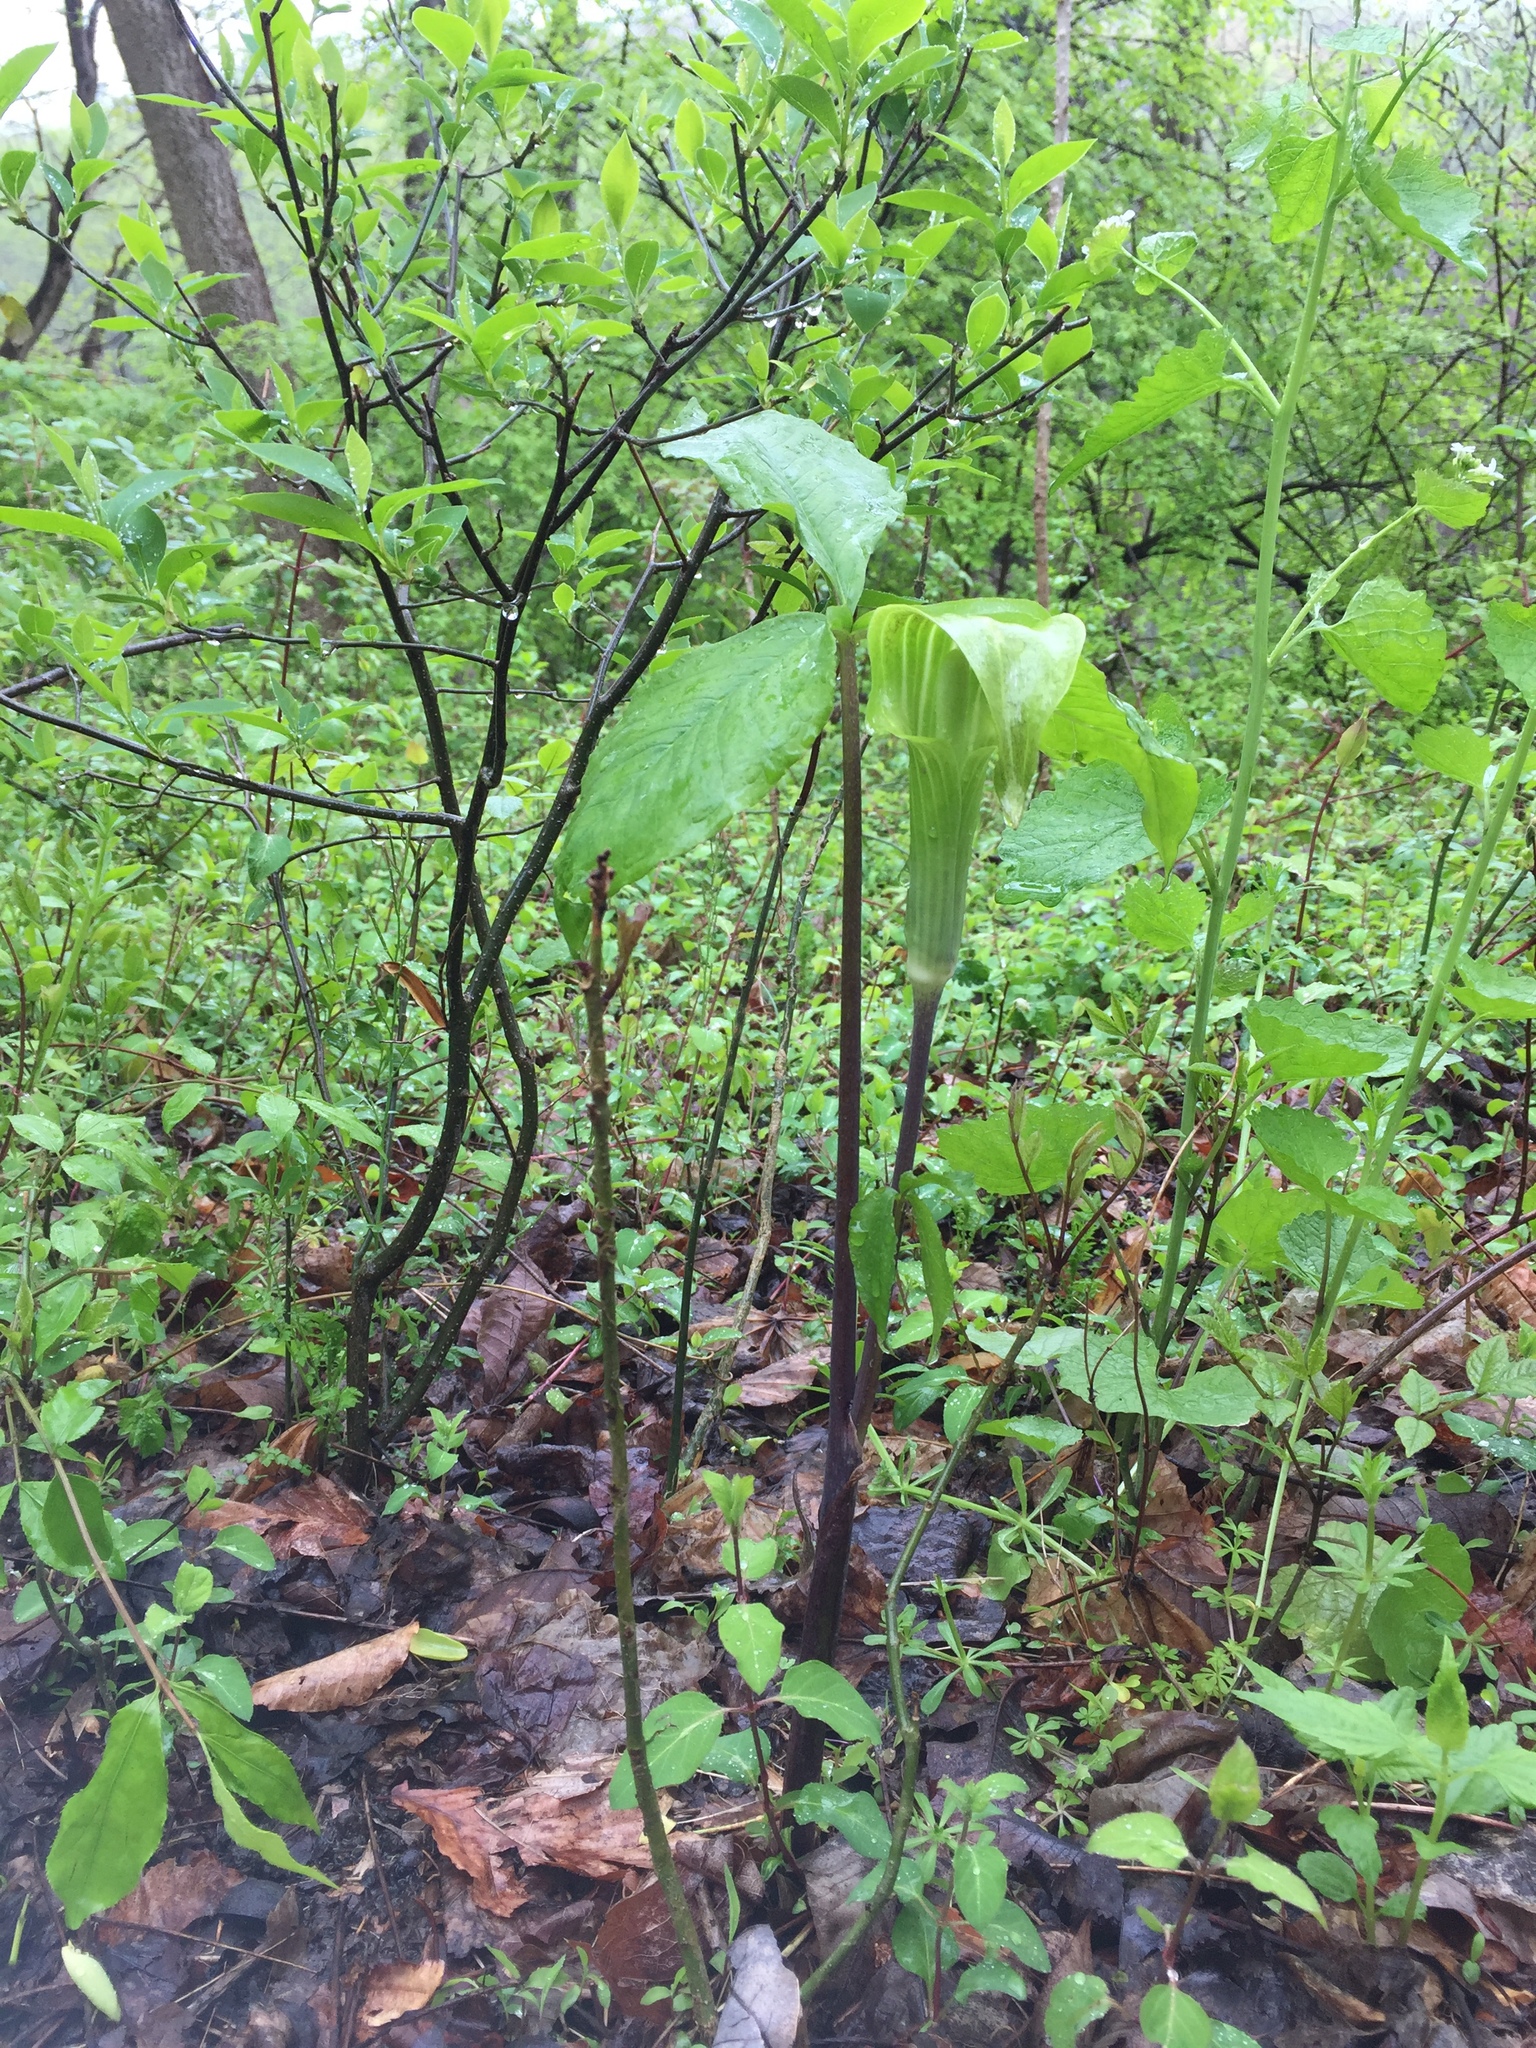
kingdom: Plantae
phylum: Tracheophyta
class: Liliopsida
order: Alismatales
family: Araceae
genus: Arisaema
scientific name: Arisaema triphyllum
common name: Jack-in-the-pulpit
